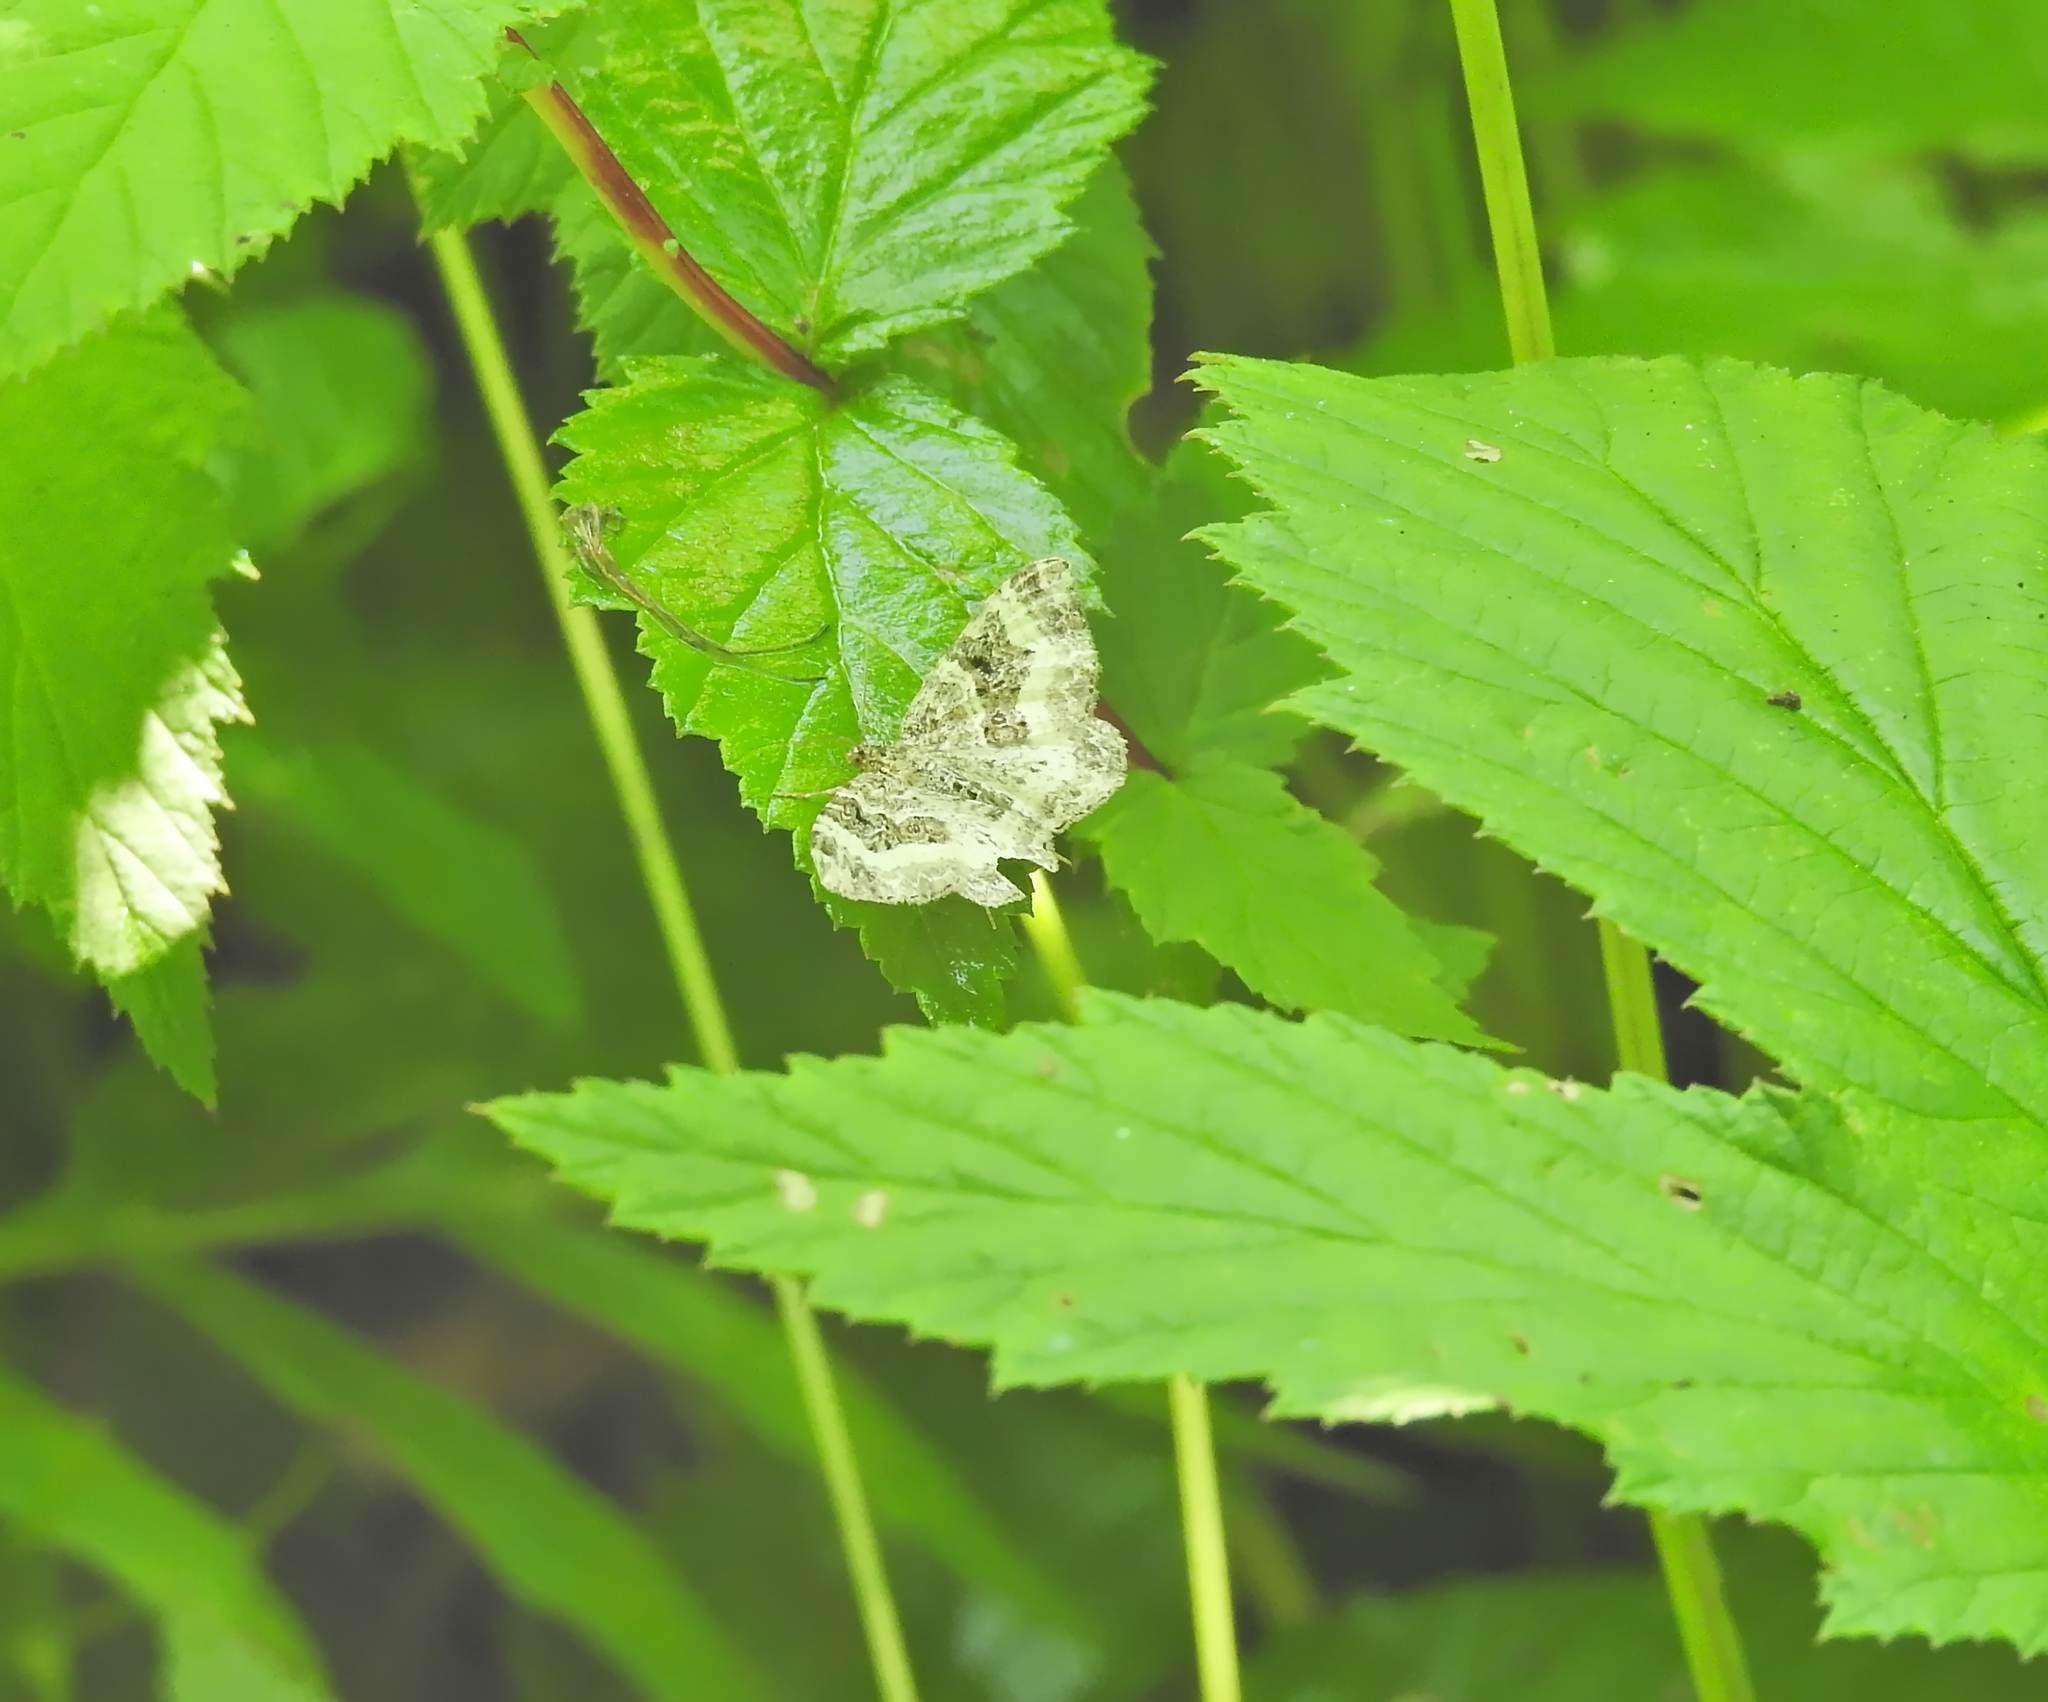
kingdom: Animalia
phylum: Arthropoda
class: Insecta
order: Lepidoptera
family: Geometridae
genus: Epirrhoe
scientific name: Epirrhoe alternata
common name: Common carpet
